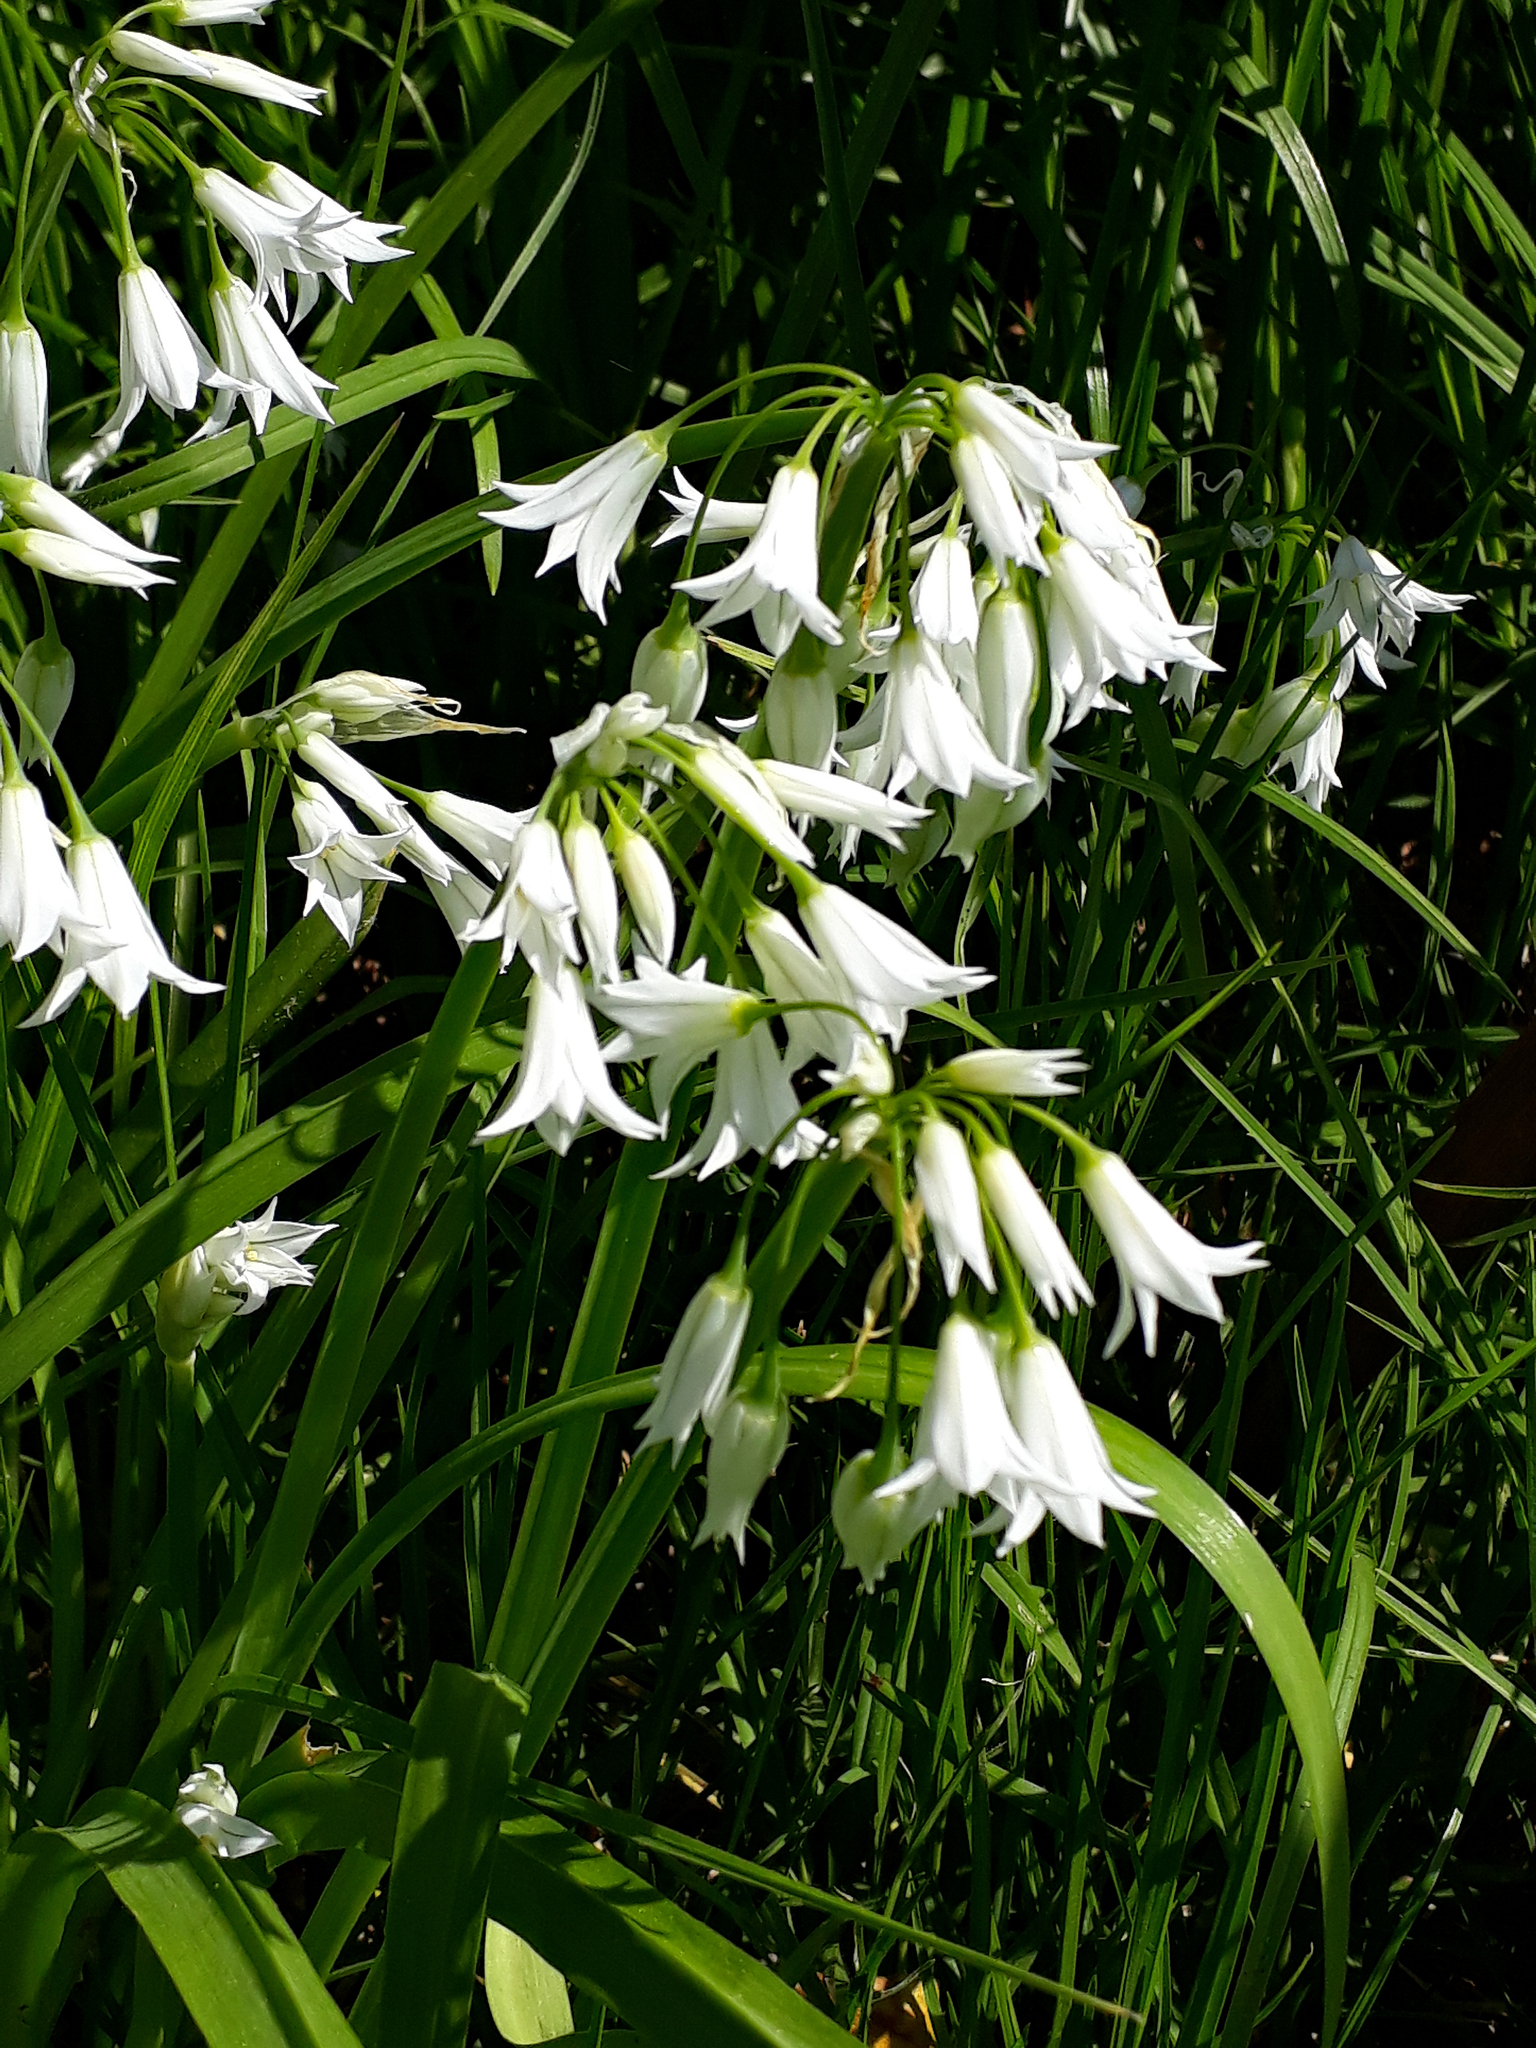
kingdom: Plantae
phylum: Tracheophyta
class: Liliopsida
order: Asparagales
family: Amaryllidaceae
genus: Allium
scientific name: Allium triquetrum
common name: Three-cornered garlic
